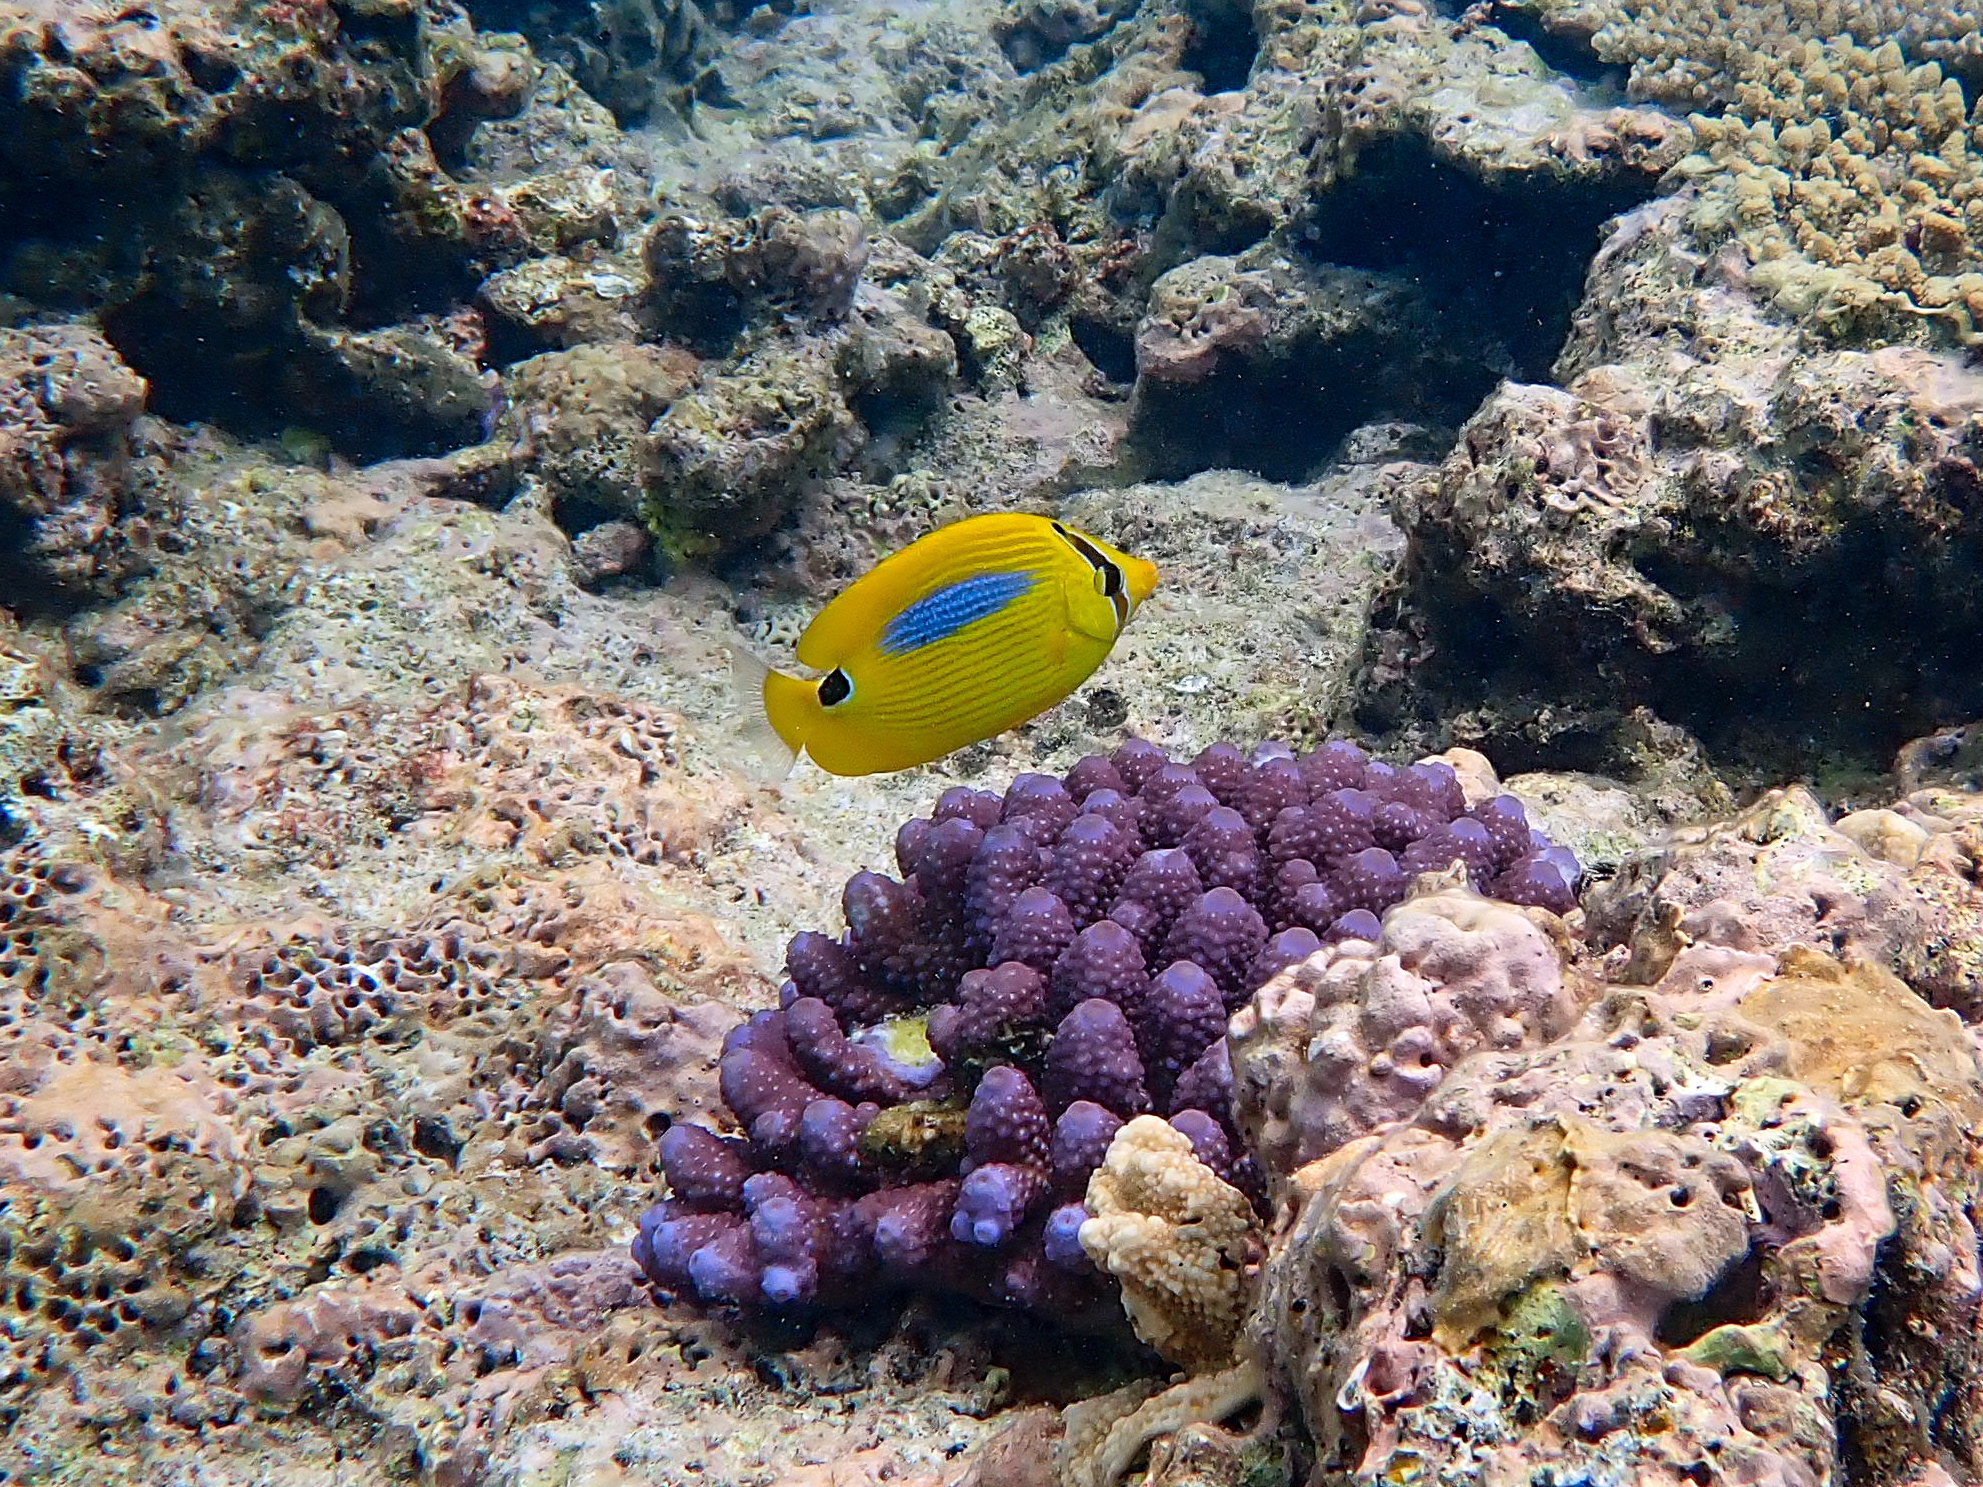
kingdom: Animalia
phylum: Chordata
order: Perciformes
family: Chaetodontidae
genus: Chaetodon
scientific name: Chaetodon plebeius
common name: Bluespot butterflyfish
